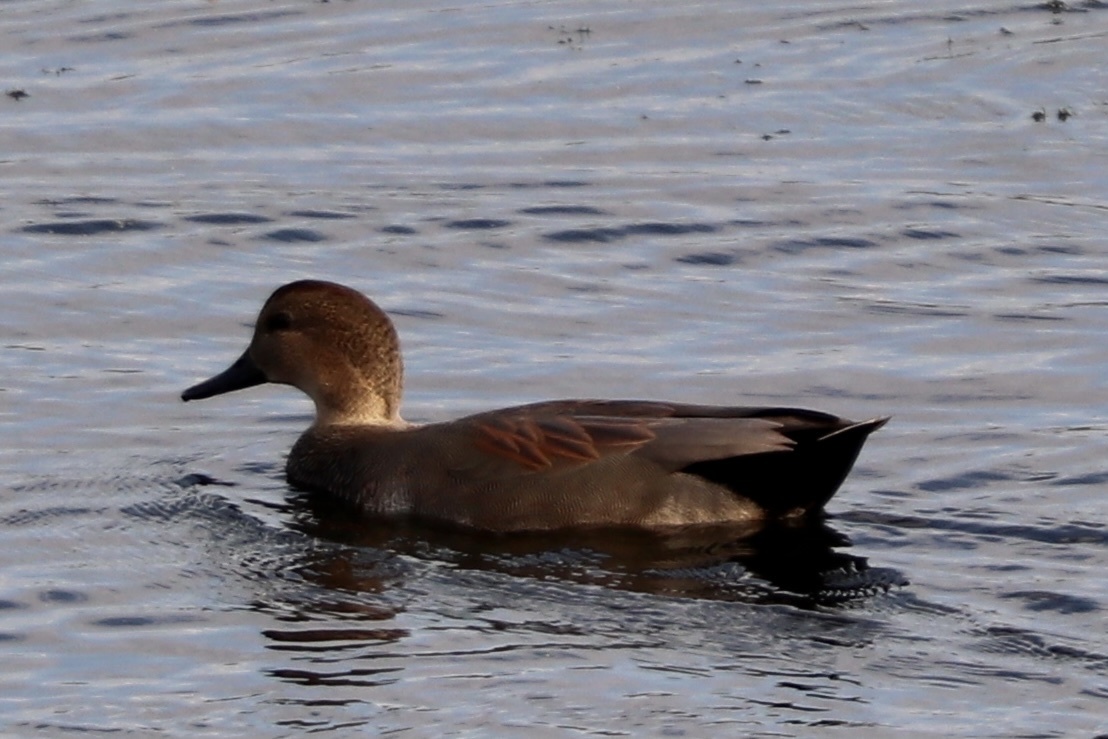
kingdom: Animalia
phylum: Chordata
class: Aves
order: Anseriformes
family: Anatidae
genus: Mareca
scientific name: Mareca strepera
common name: Gadwall
